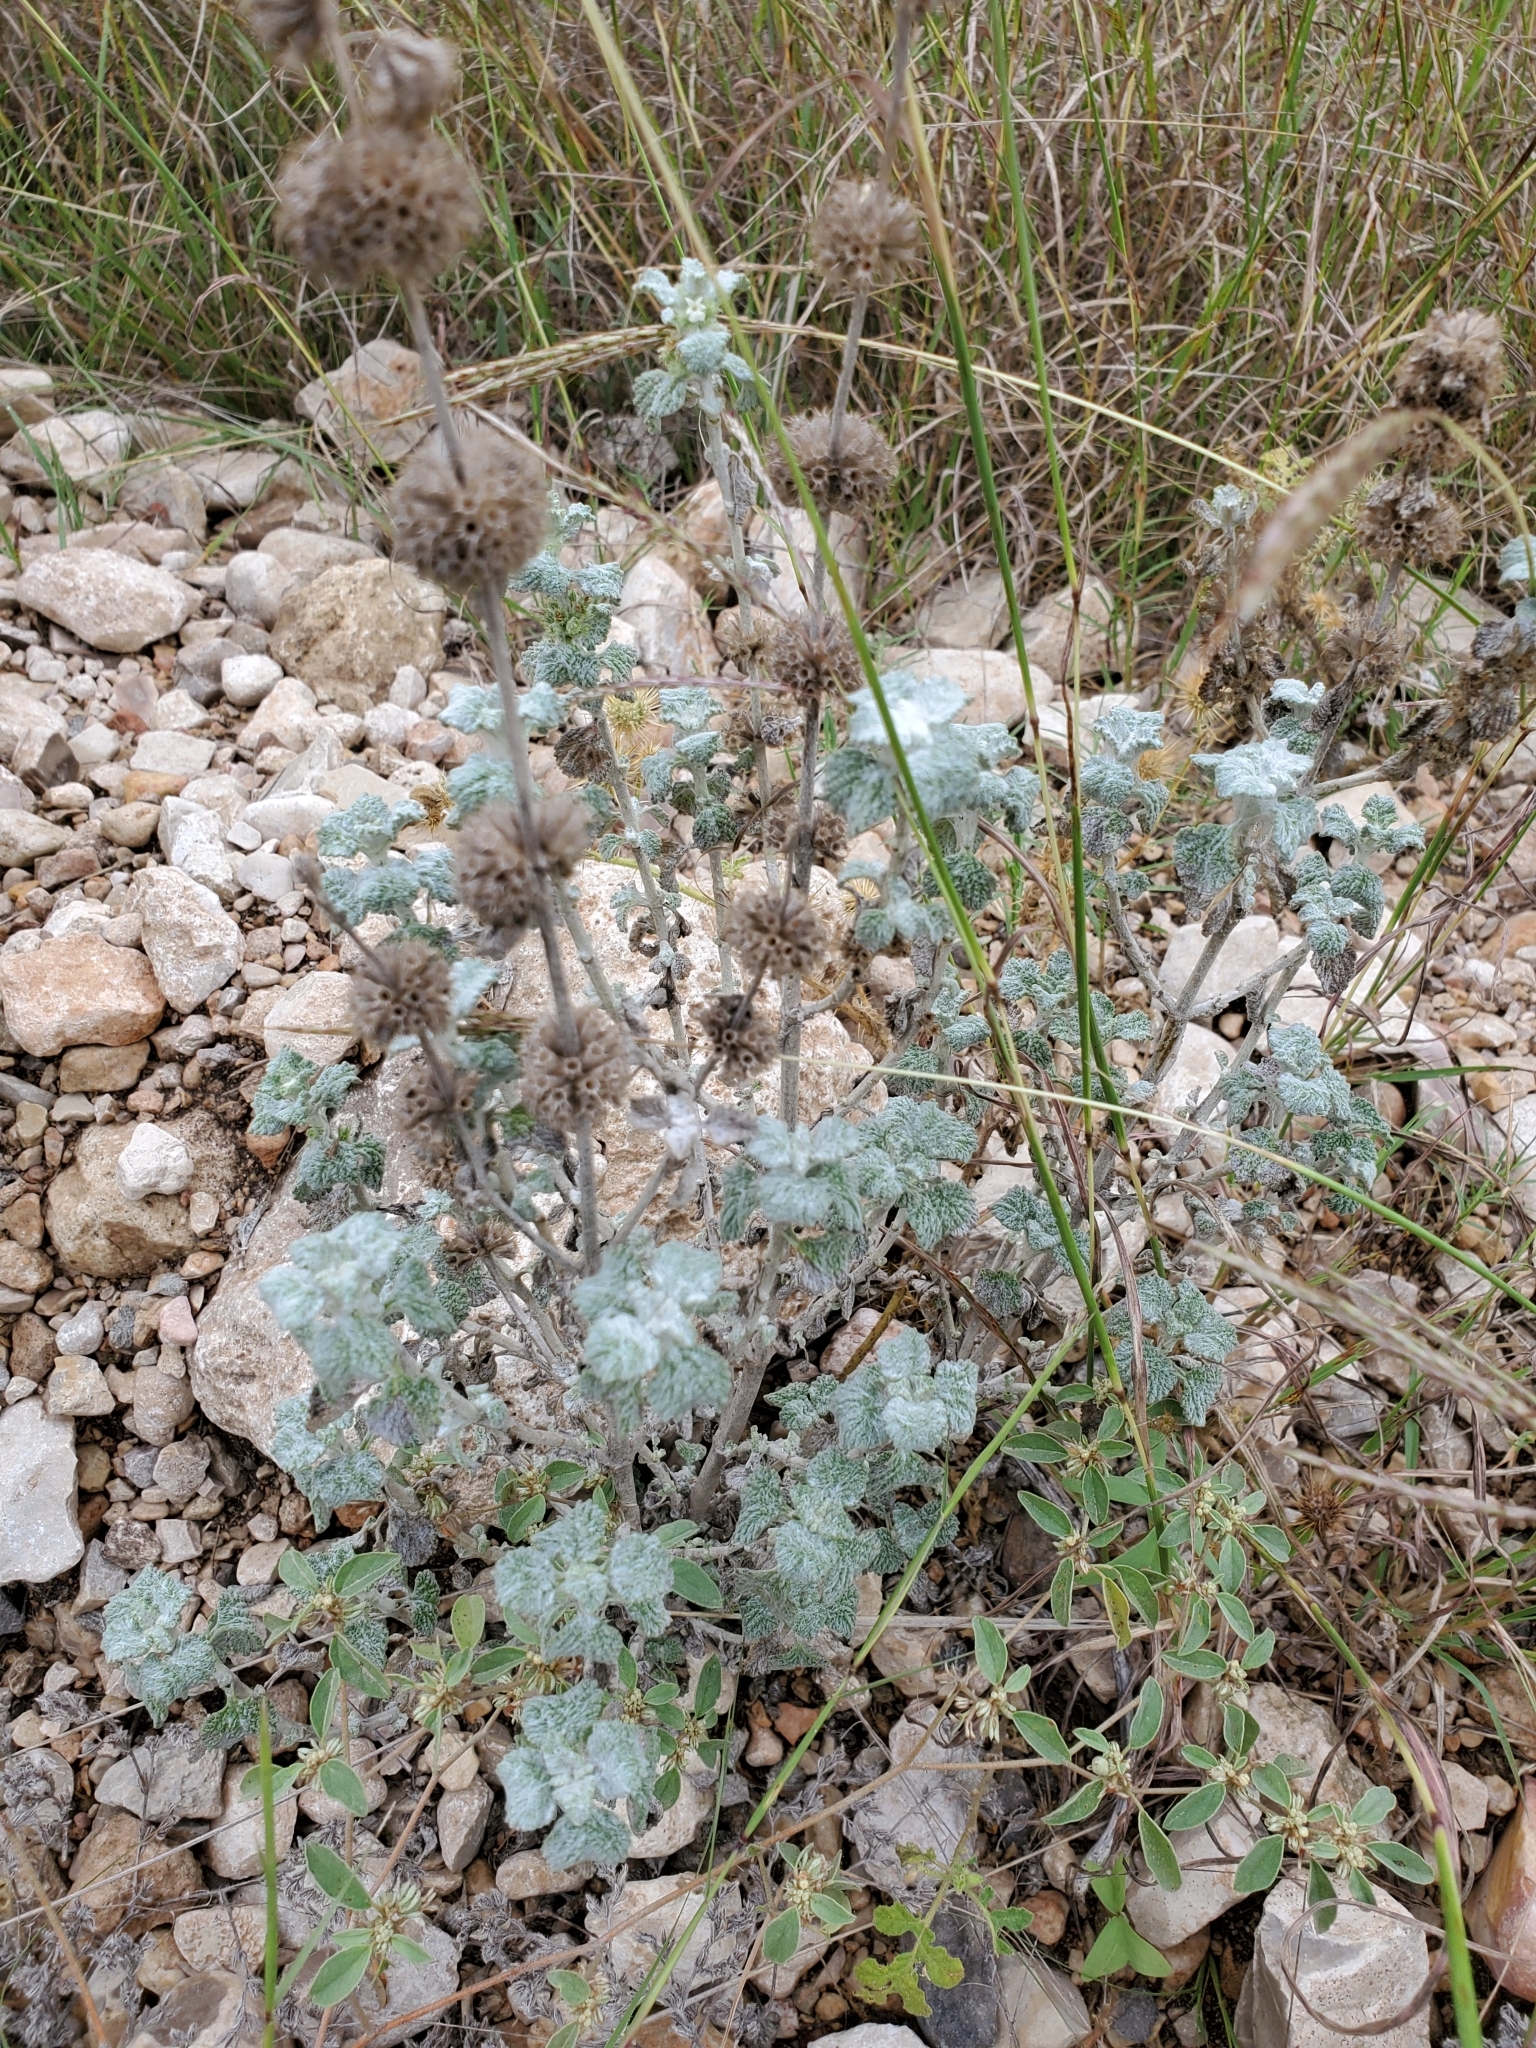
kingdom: Plantae
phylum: Tracheophyta
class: Magnoliopsida
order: Lamiales
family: Lamiaceae
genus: Marrubium
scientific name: Marrubium vulgare
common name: Horehound
